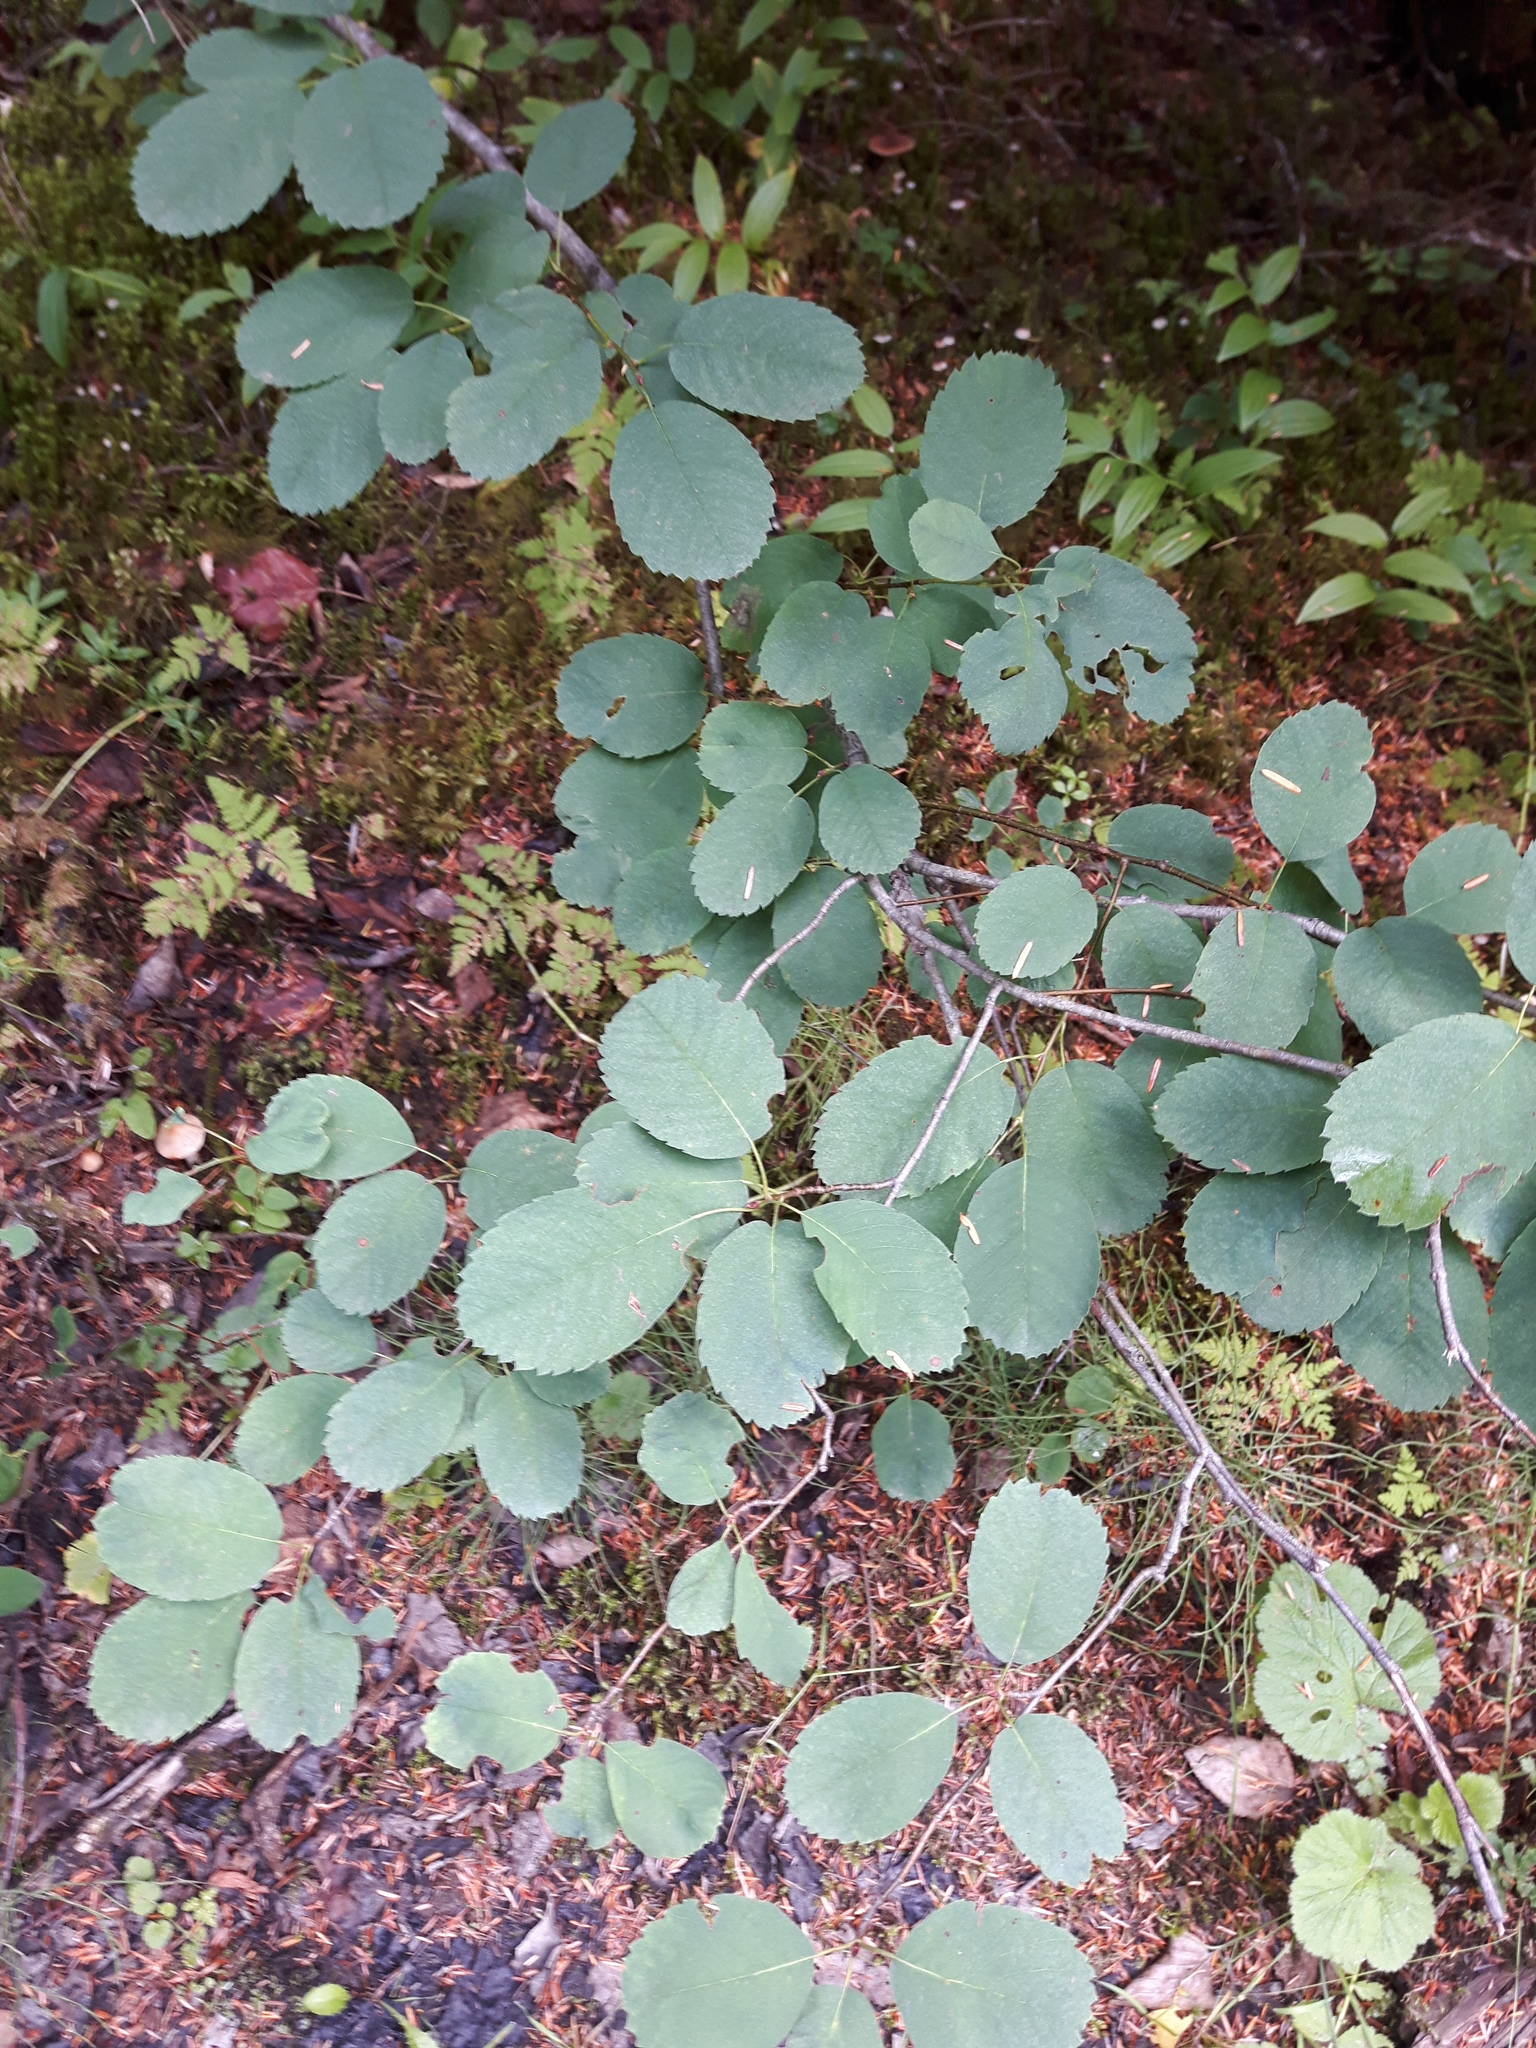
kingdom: Plantae
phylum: Tracheophyta
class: Magnoliopsida
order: Rosales
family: Rosaceae
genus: Amelanchier
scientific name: Amelanchier alnifolia
